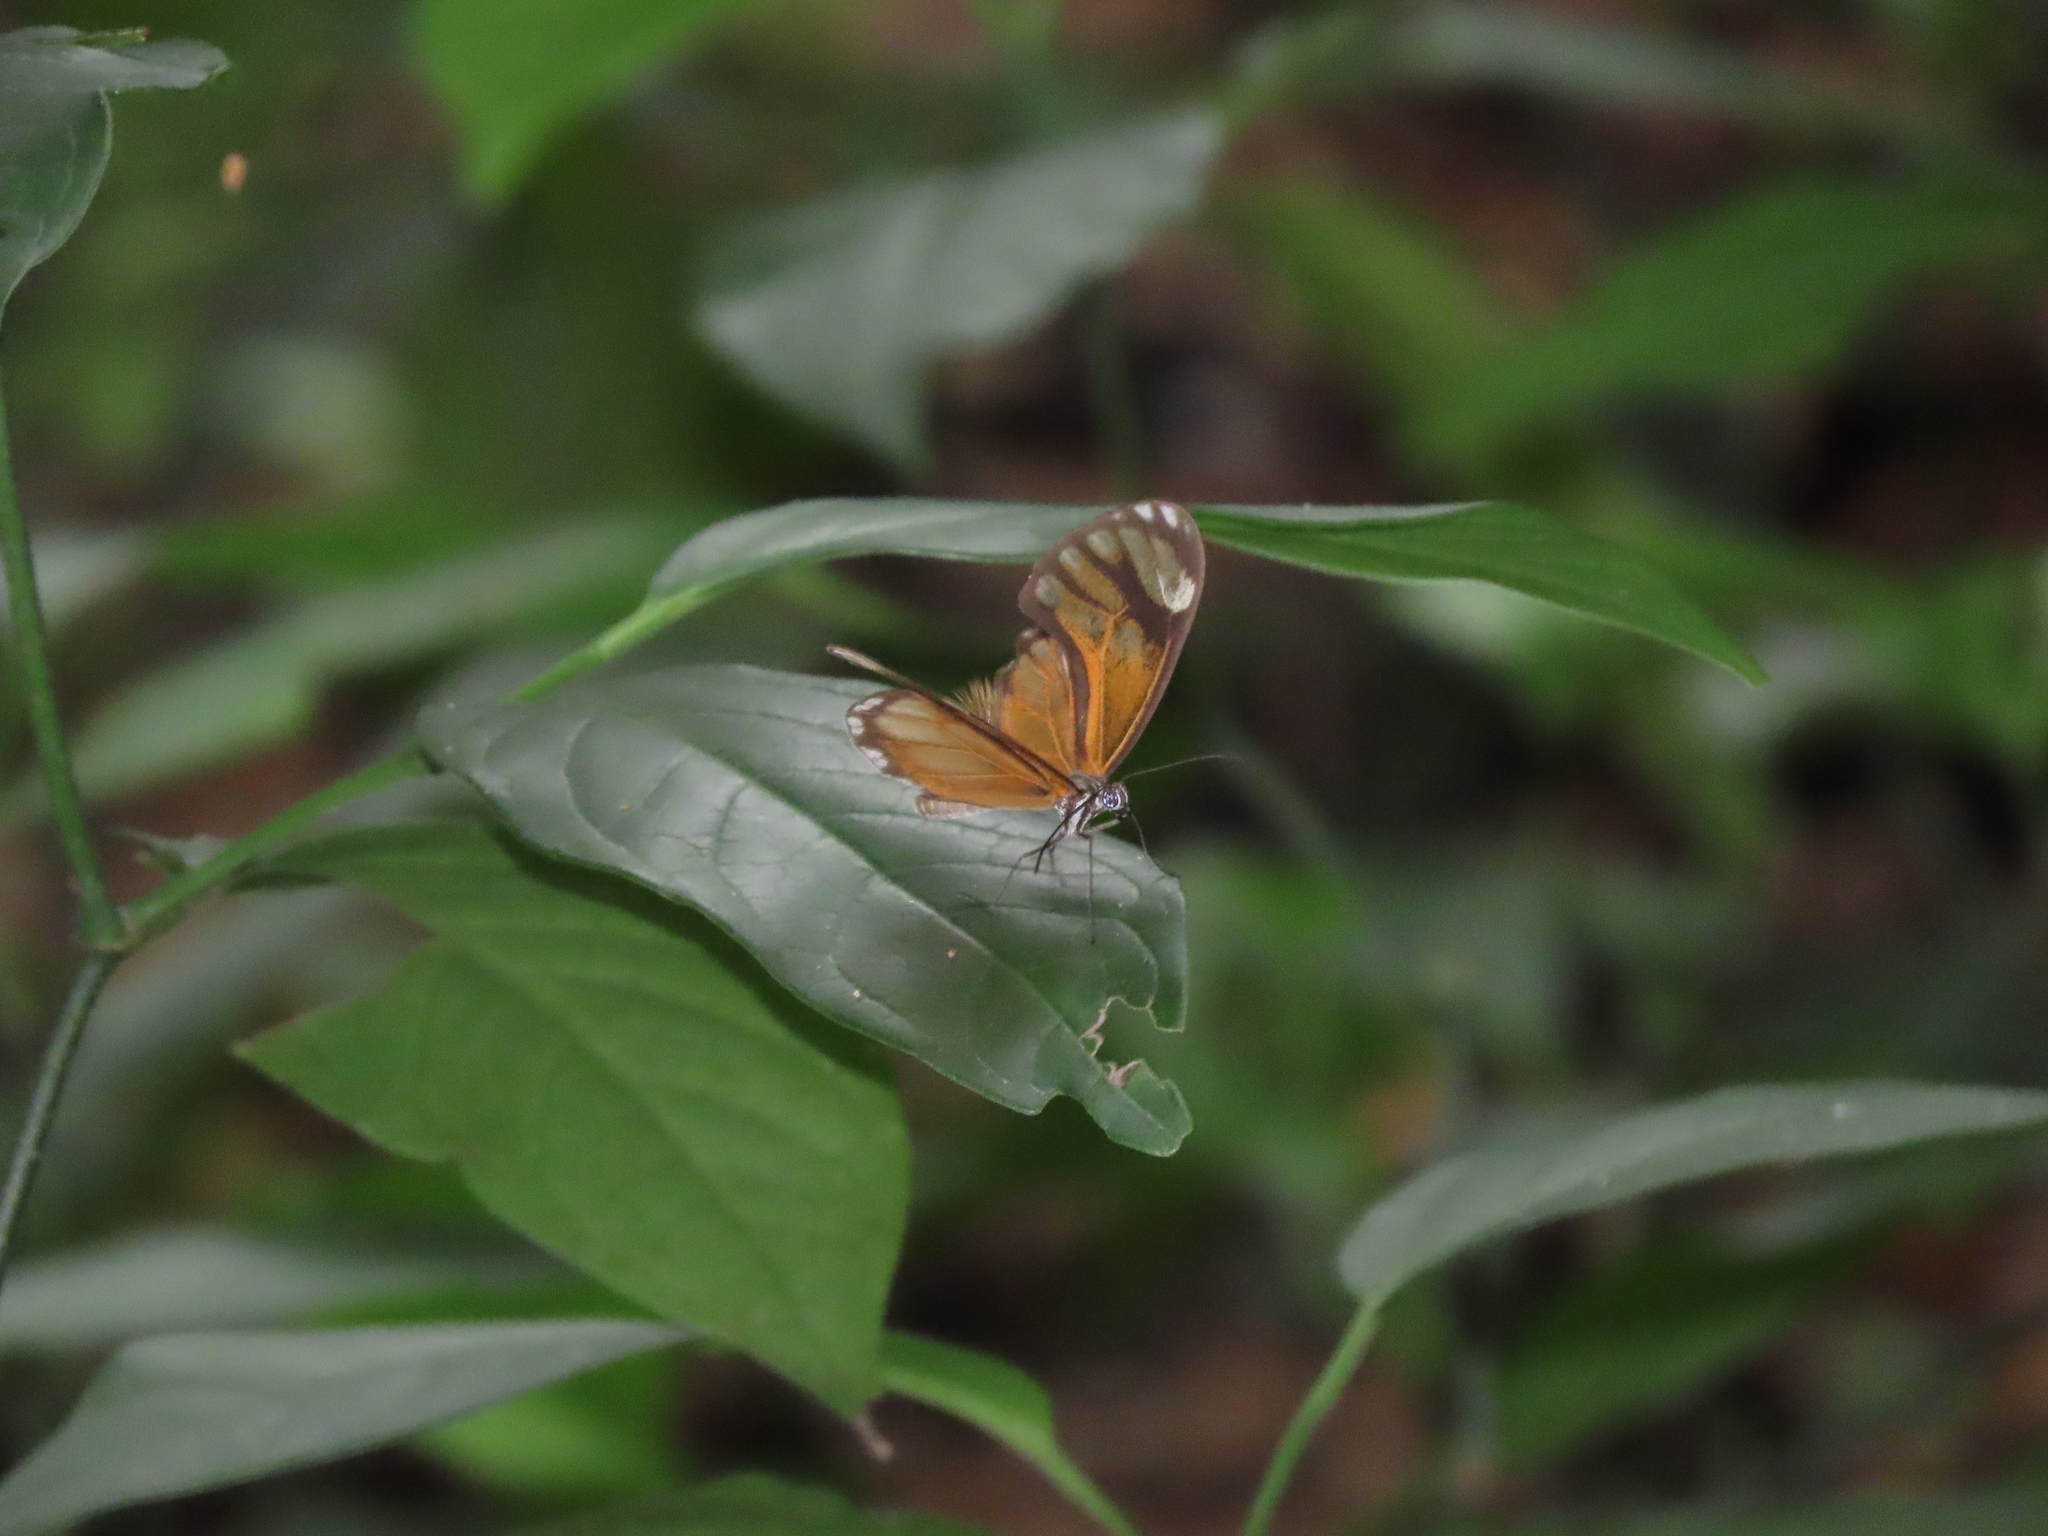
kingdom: Animalia
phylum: Arthropoda
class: Insecta
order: Lepidoptera
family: Nymphalidae
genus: Hypoleria
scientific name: Hypoleria ocalea
